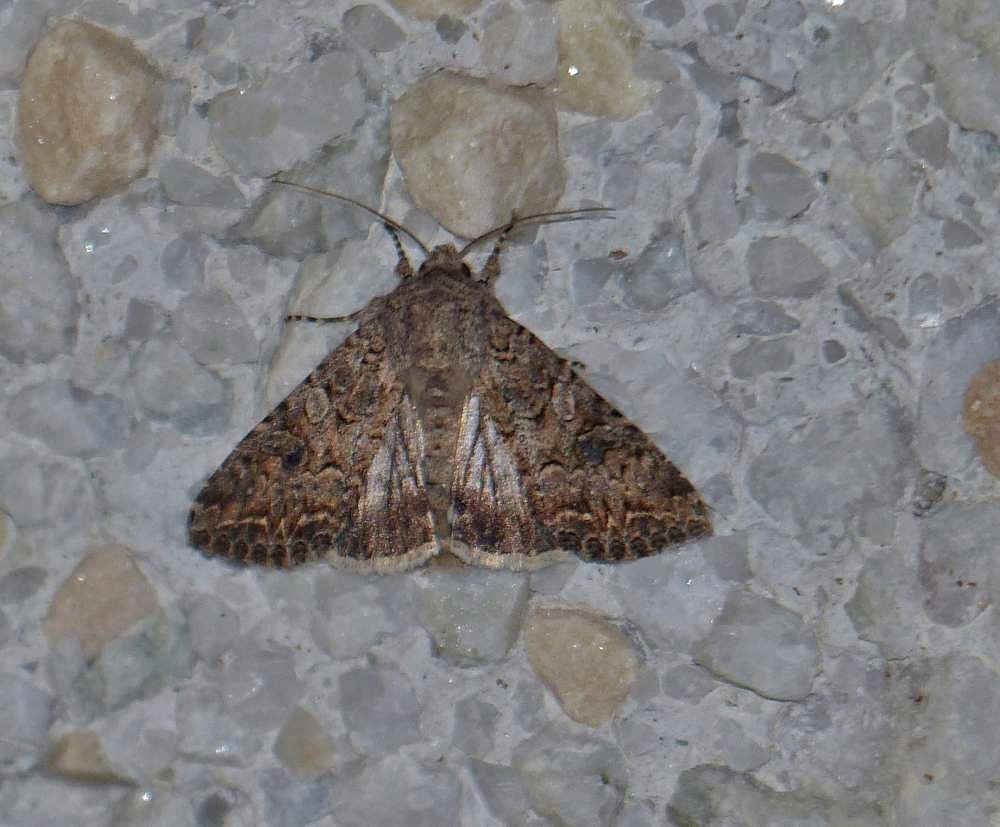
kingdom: Animalia
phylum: Arthropoda
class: Insecta
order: Lepidoptera
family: Noctuidae
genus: Anarta
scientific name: Anarta trifolii
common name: Clover cutworm moth
